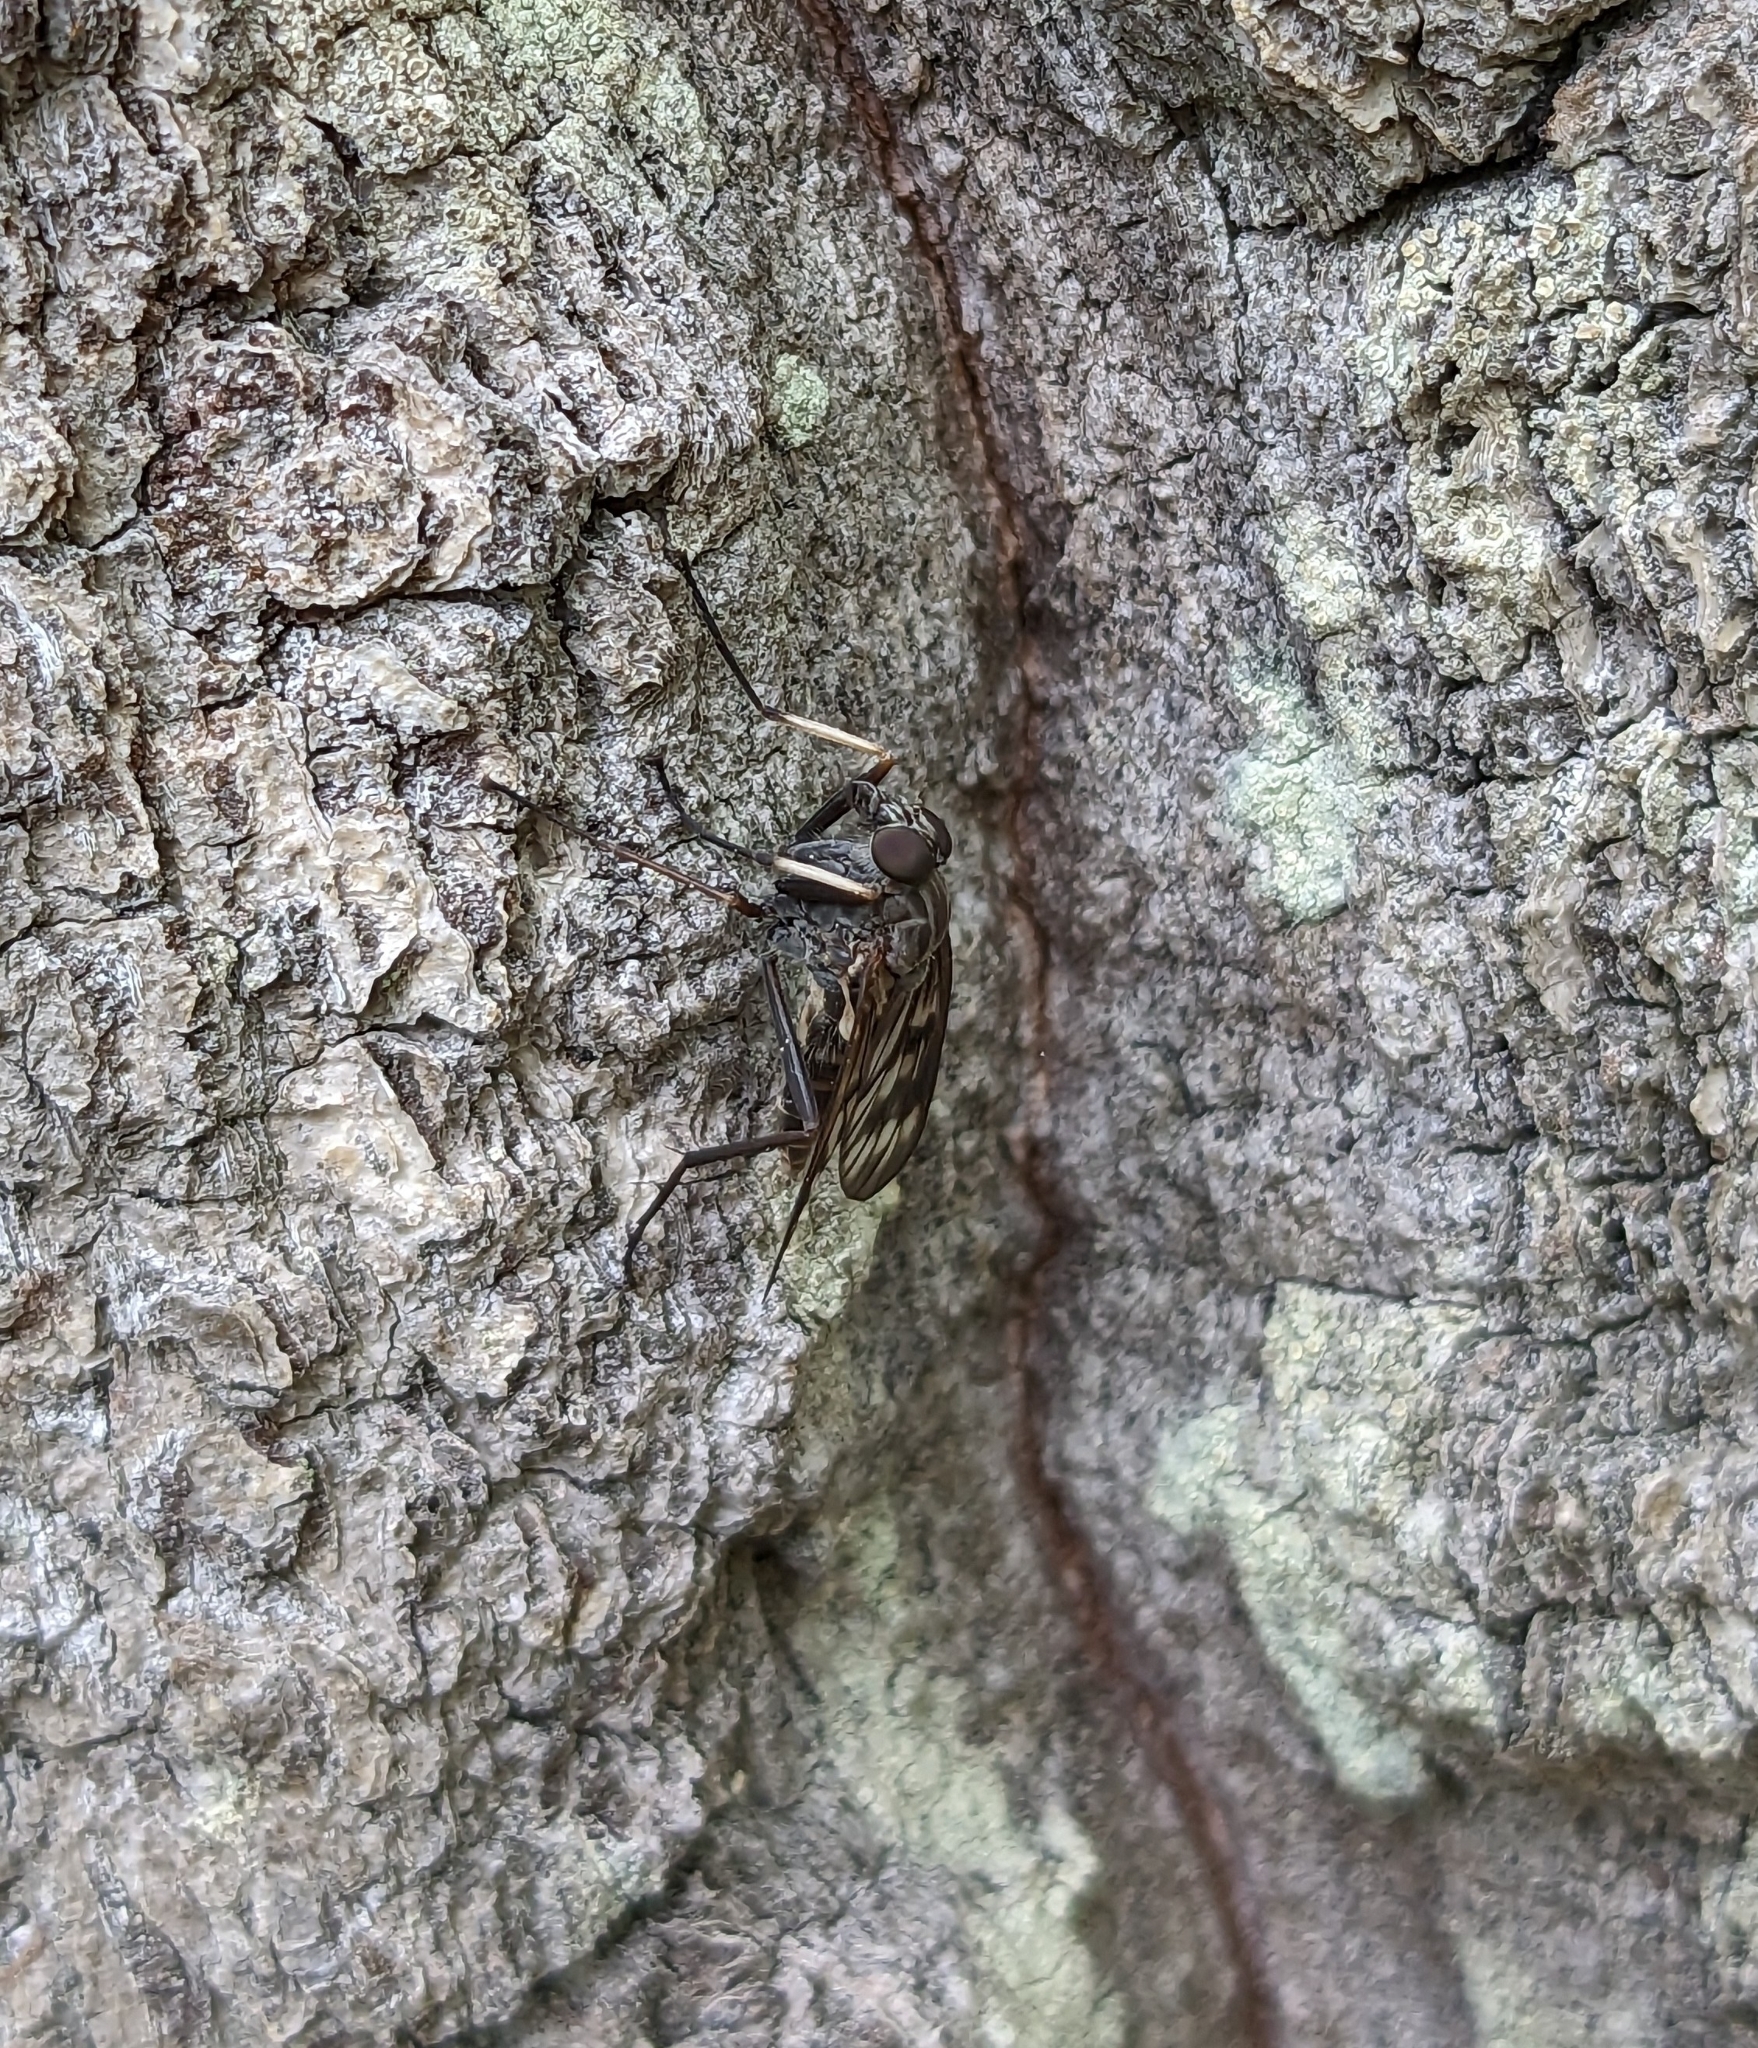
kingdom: Animalia
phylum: Arthropoda
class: Insecta
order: Diptera
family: Rhagionidae
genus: Rhagio
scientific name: Rhagio mystaceus
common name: Common snipe fly
